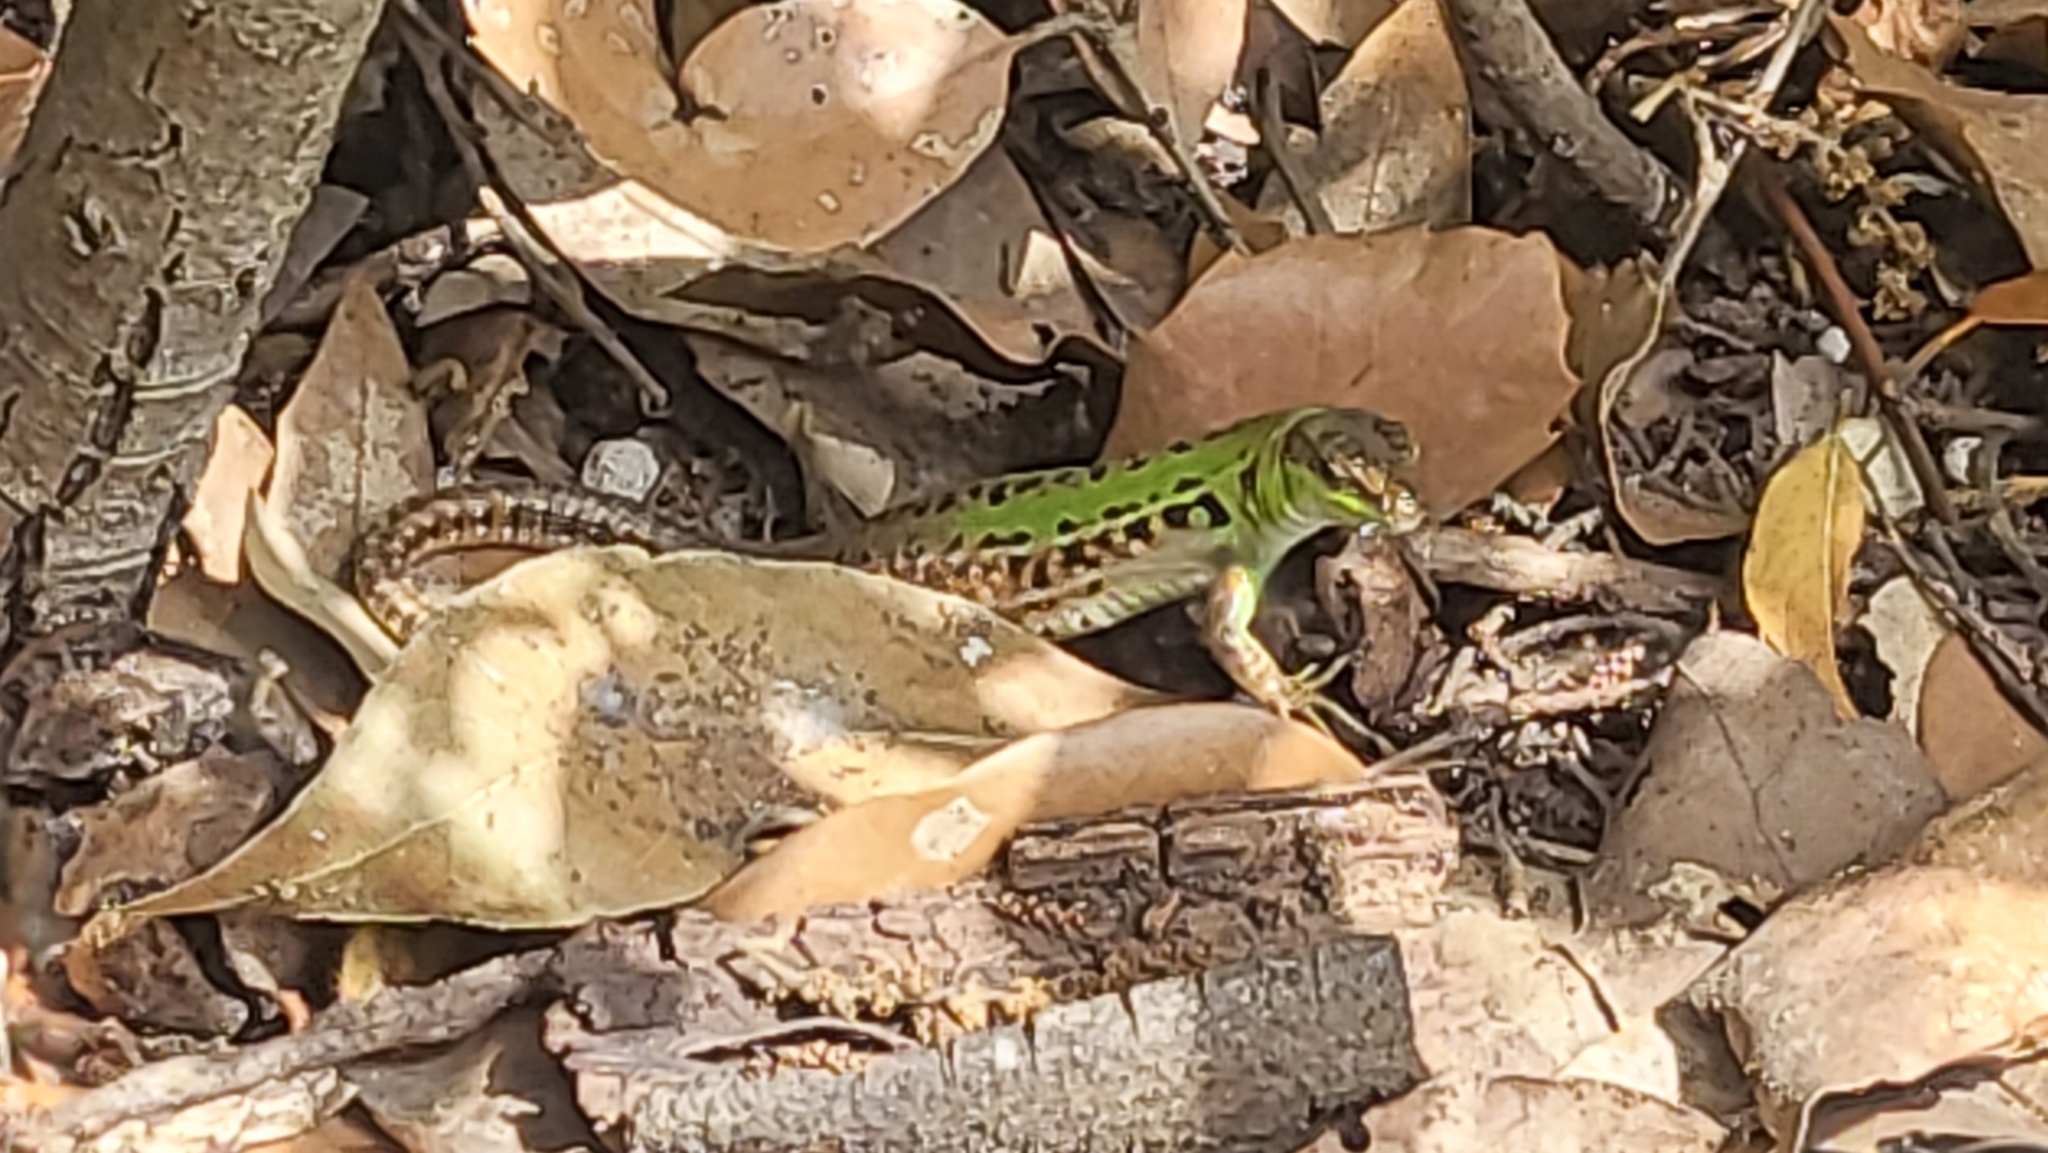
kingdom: Animalia
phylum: Chordata
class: Squamata
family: Lacertidae
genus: Podarcis
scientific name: Podarcis siculus
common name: Italian wall lizard
